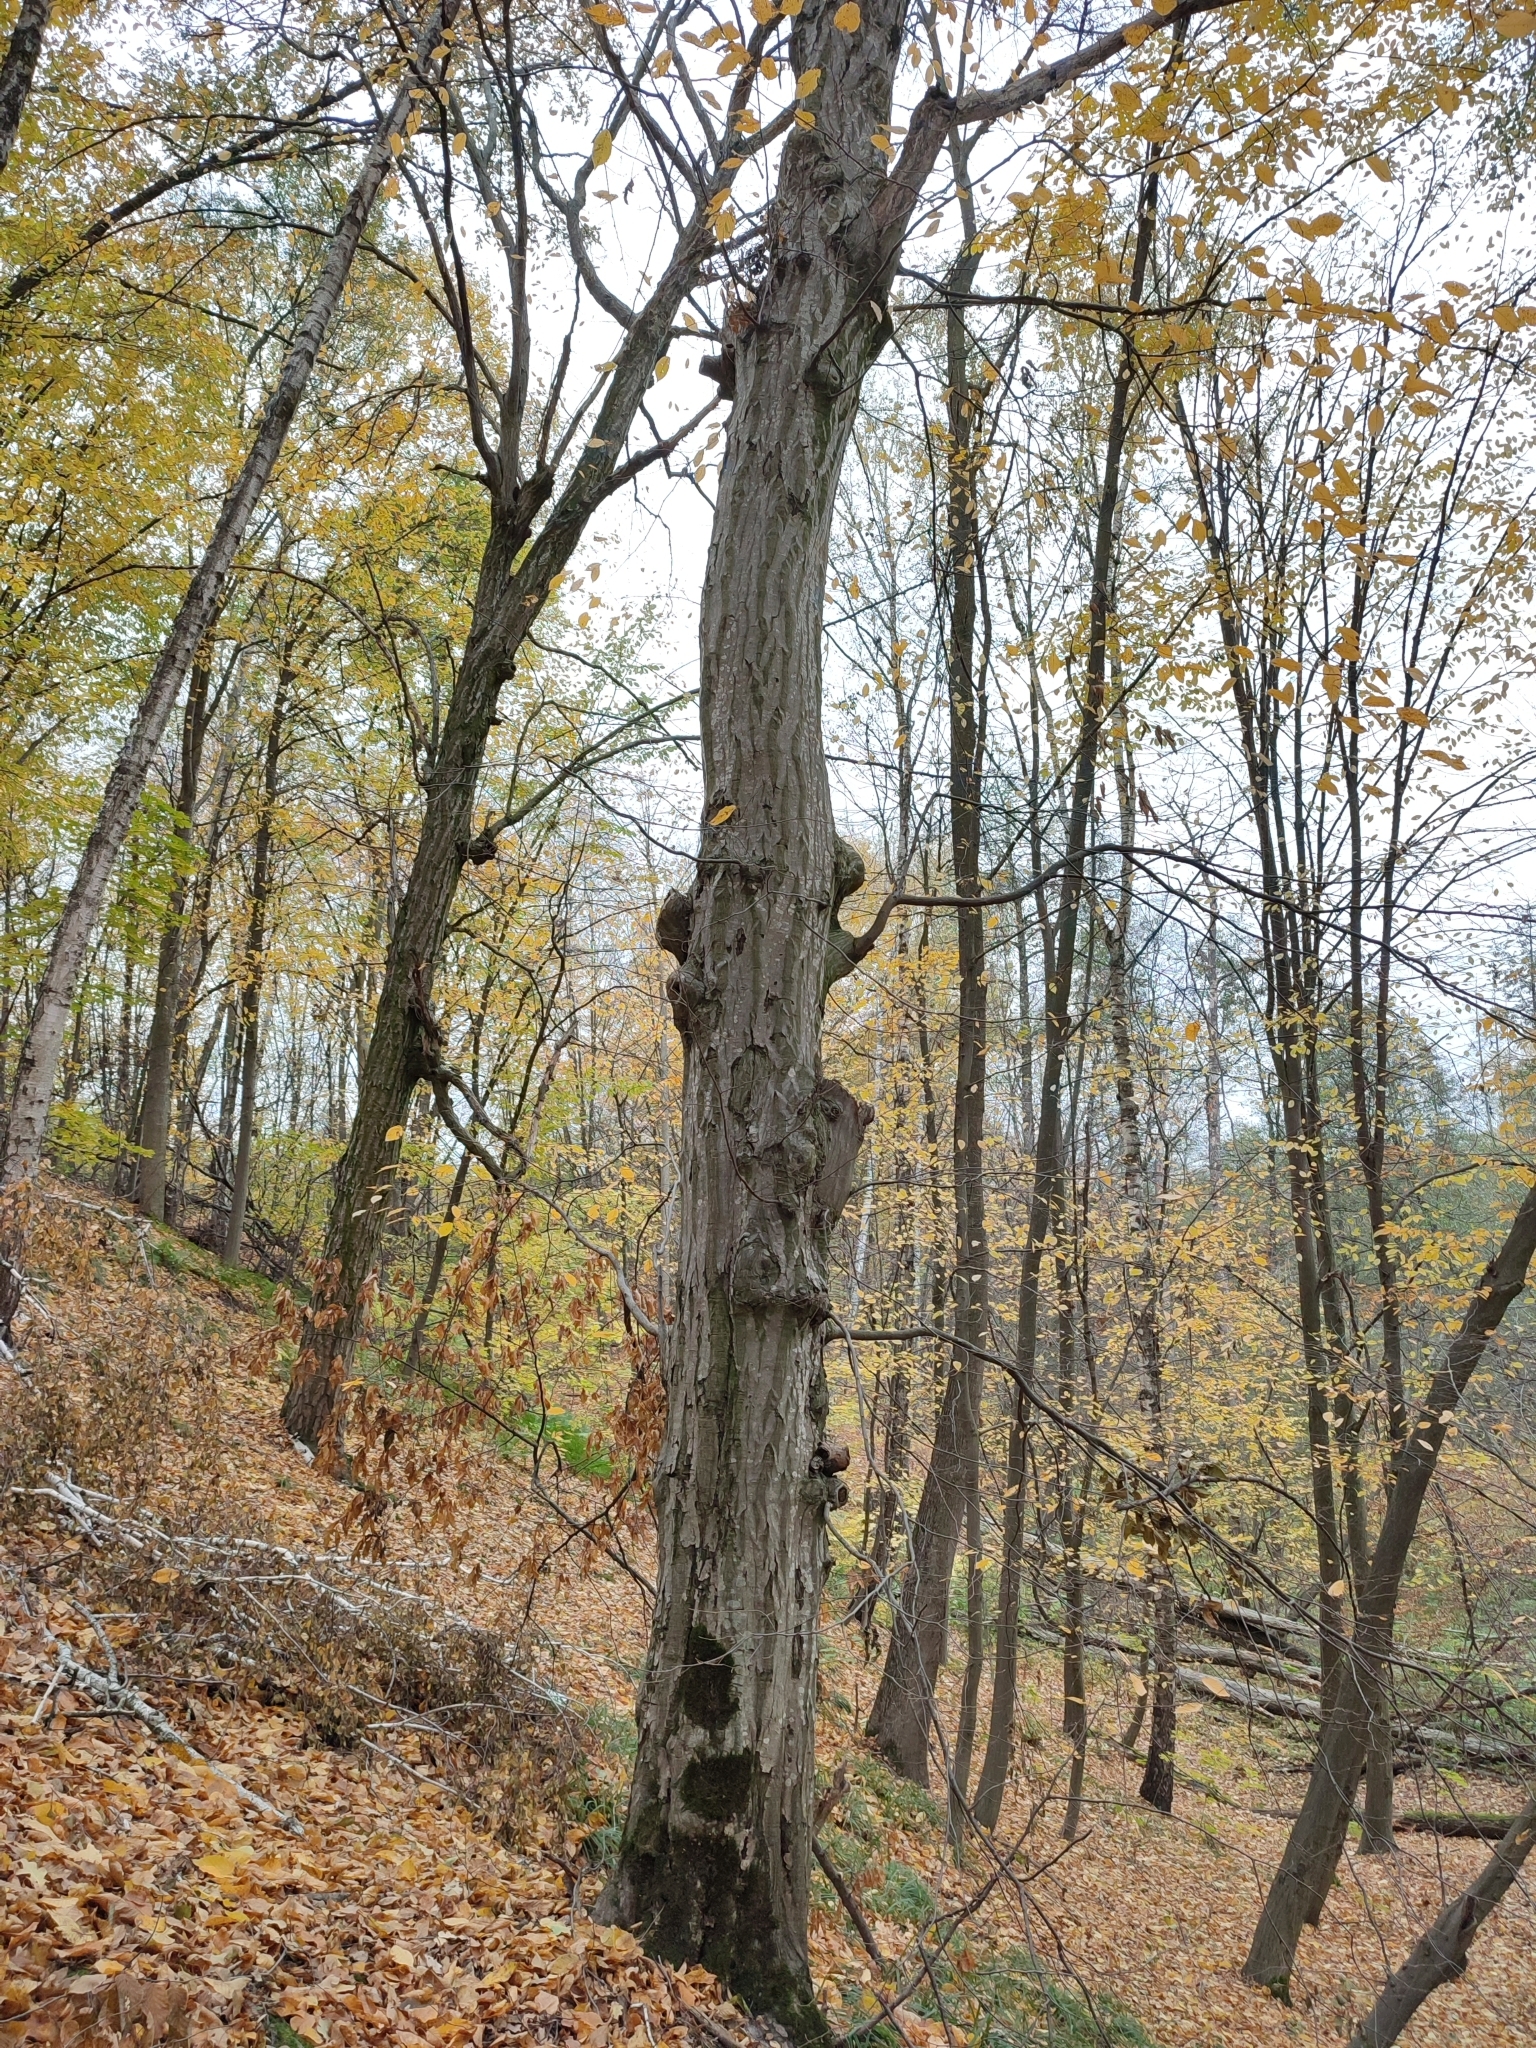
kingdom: Plantae
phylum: Tracheophyta
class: Magnoliopsida
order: Fagales
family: Betulaceae
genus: Carpinus
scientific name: Carpinus betulus
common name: Hornbeam
